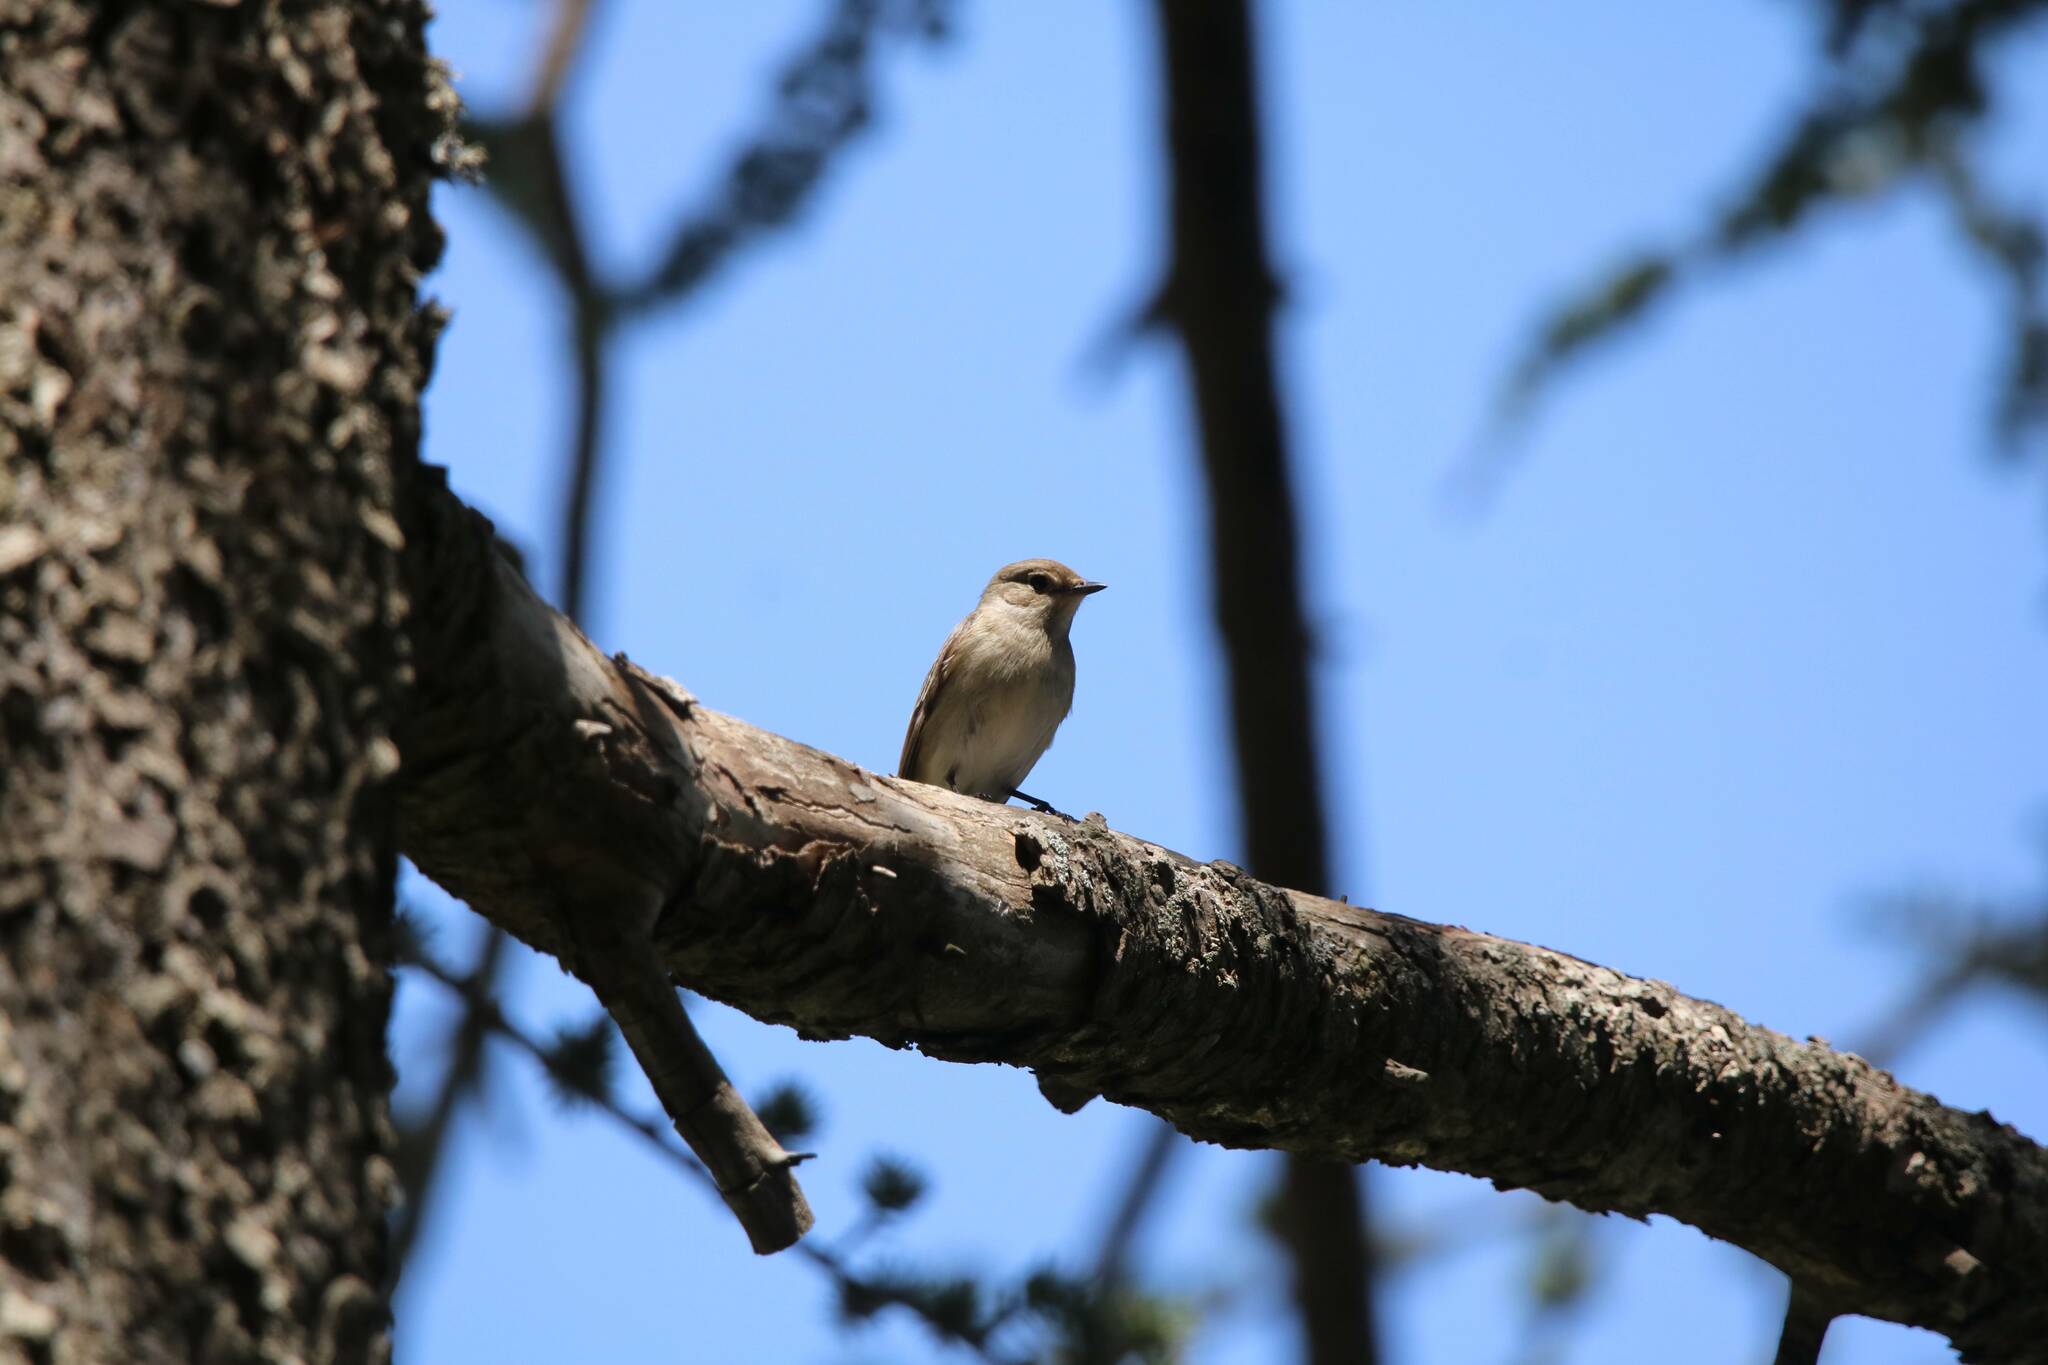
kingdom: Animalia
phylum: Chordata
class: Aves
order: Passeriformes
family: Muscicapidae
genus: Ficedula
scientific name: Ficedula speculigera
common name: Atlas pied flycatcher
